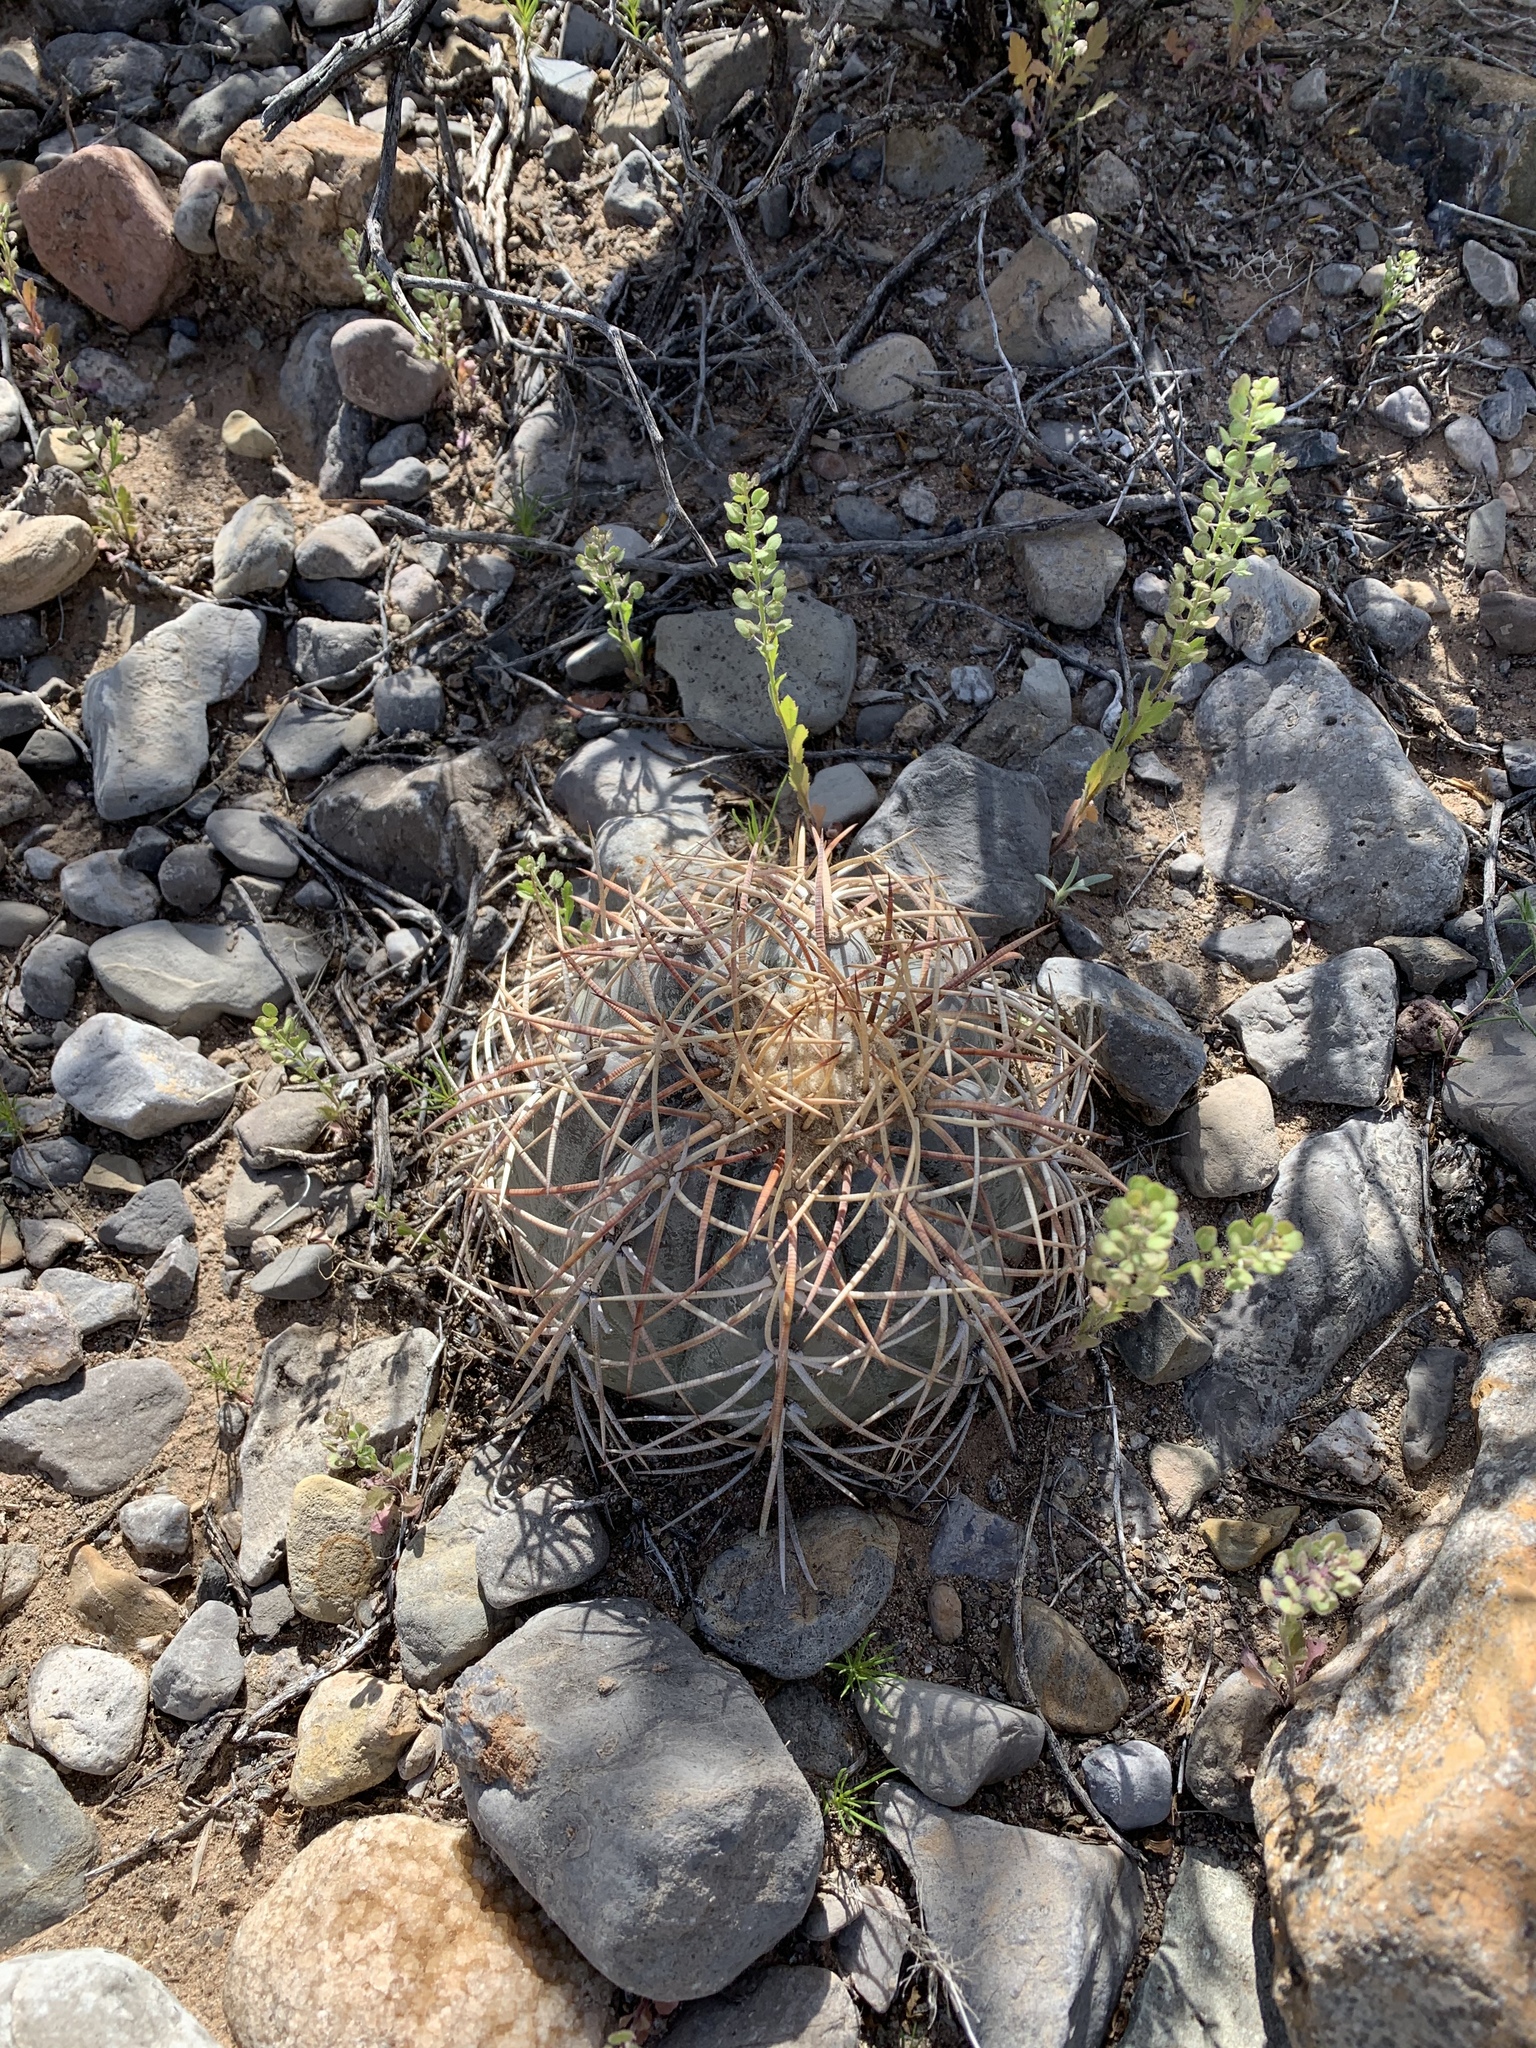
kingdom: Plantae
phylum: Tracheophyta
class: Magnoliopsida
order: Caryophyllales
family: Cactaceae
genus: Echinocactus
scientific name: Echinocactus horizonthalonius
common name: Devilshead
